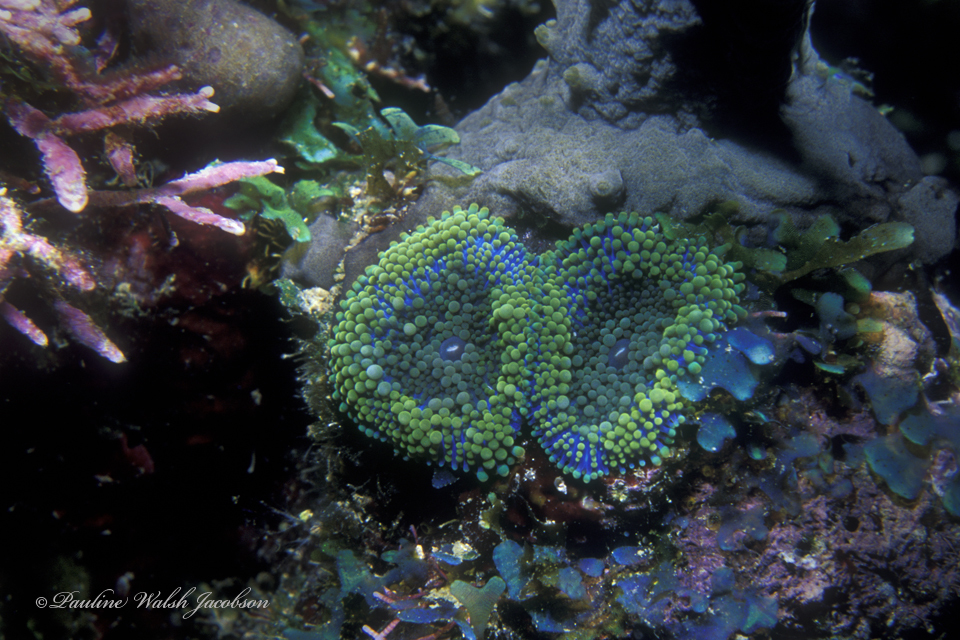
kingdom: Animalia
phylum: Cnidaria
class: Anthozoa
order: Corallimorpharia
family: Ricordeidae
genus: Ricordea
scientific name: Ricordea florida
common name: False coral
